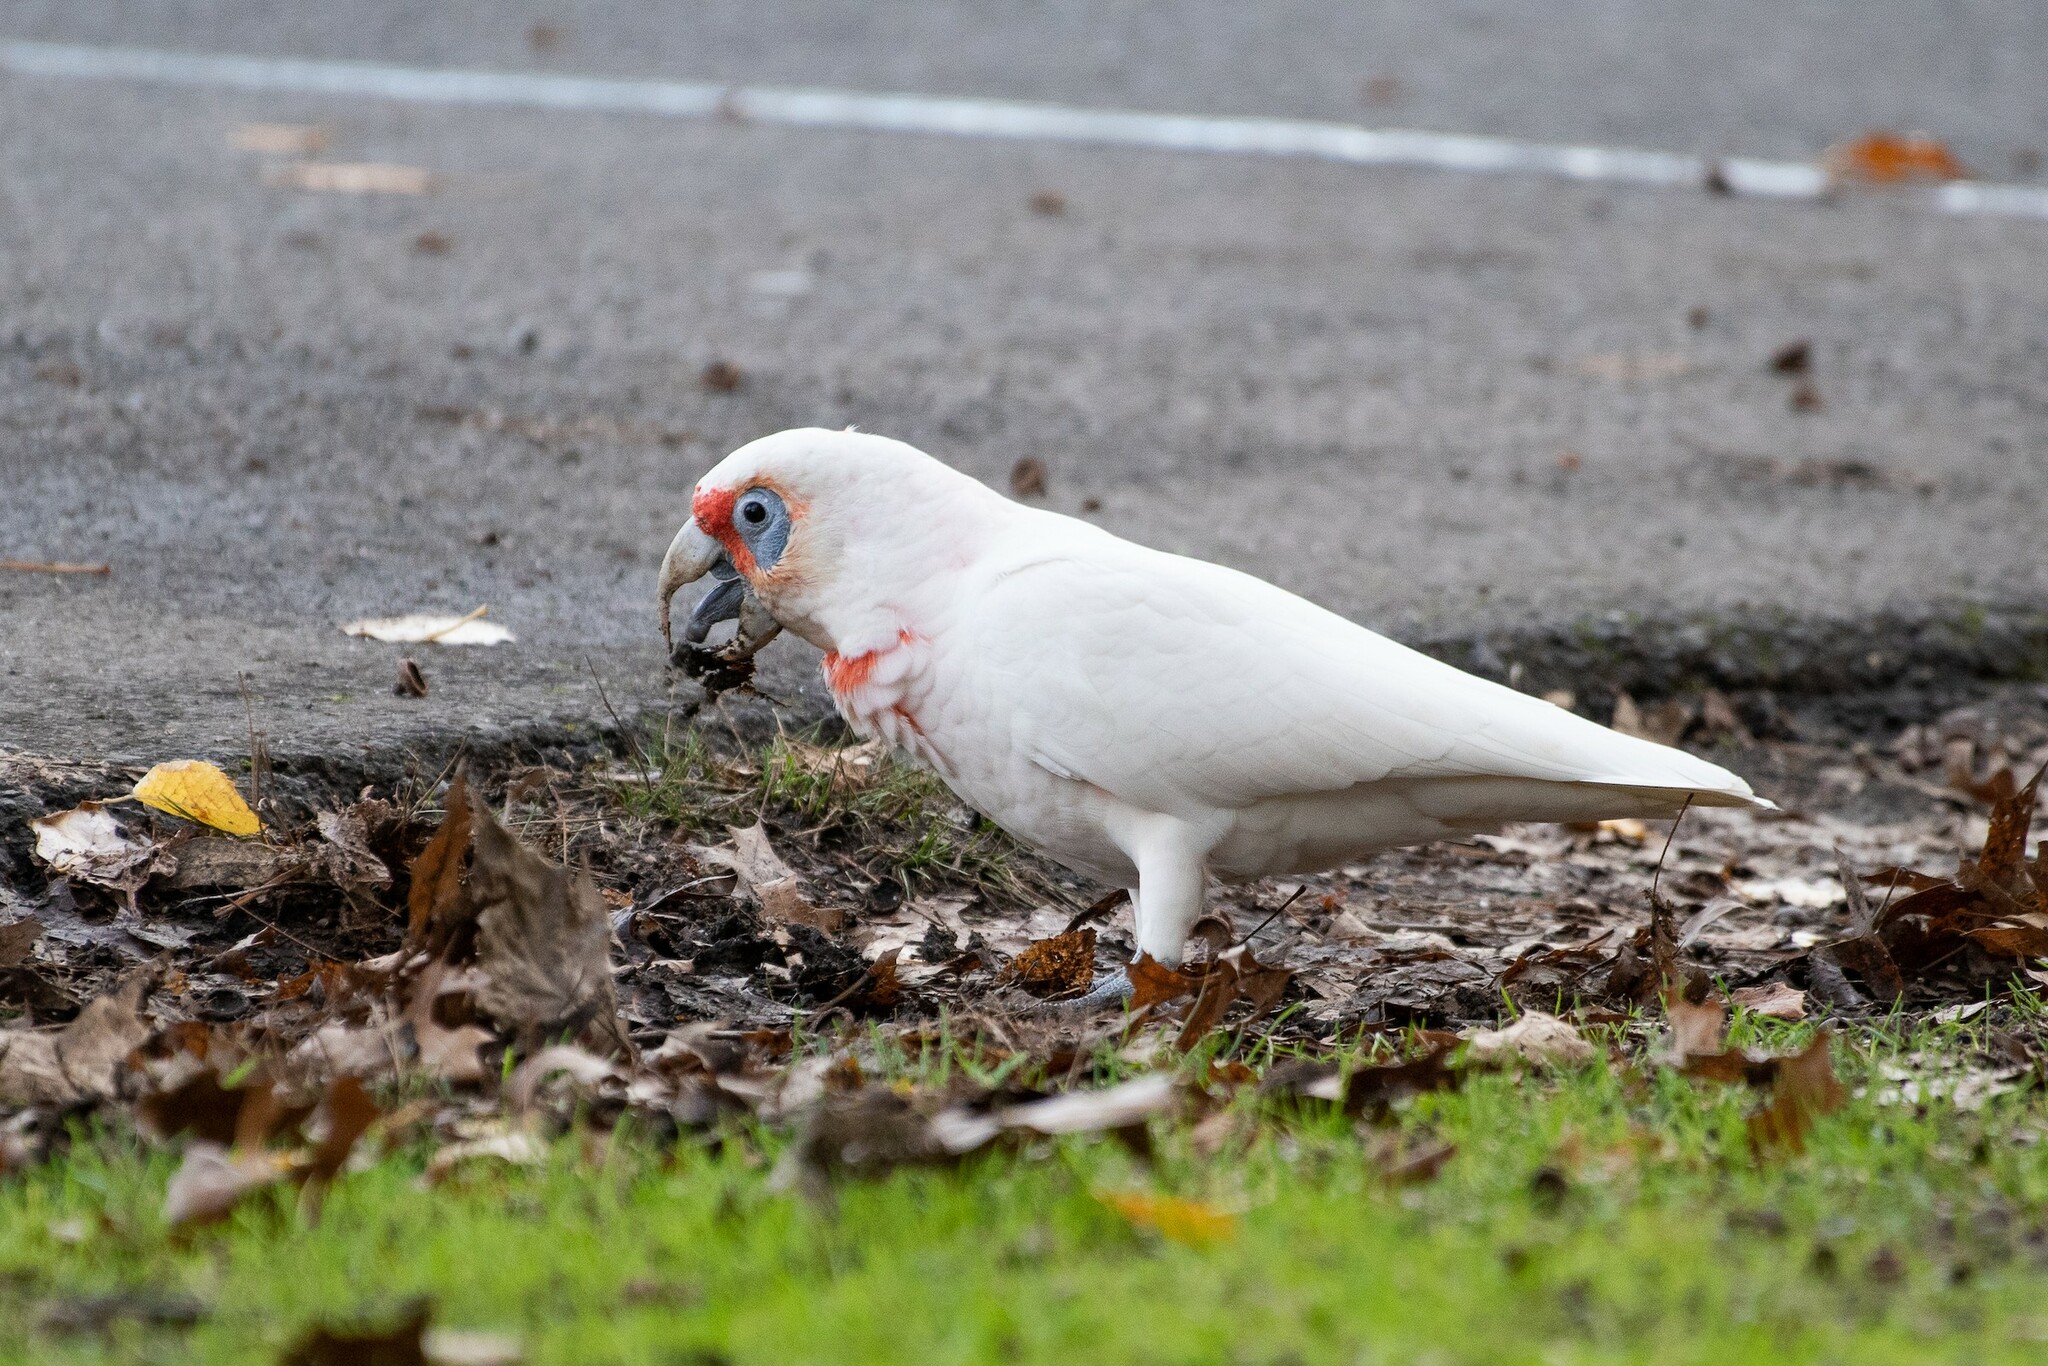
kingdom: Animalia
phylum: Chordata
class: Aves
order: Psittaciformes
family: Psittacidae
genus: Cacatua
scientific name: Cacatua tenuirostris
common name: Long-billed corella
